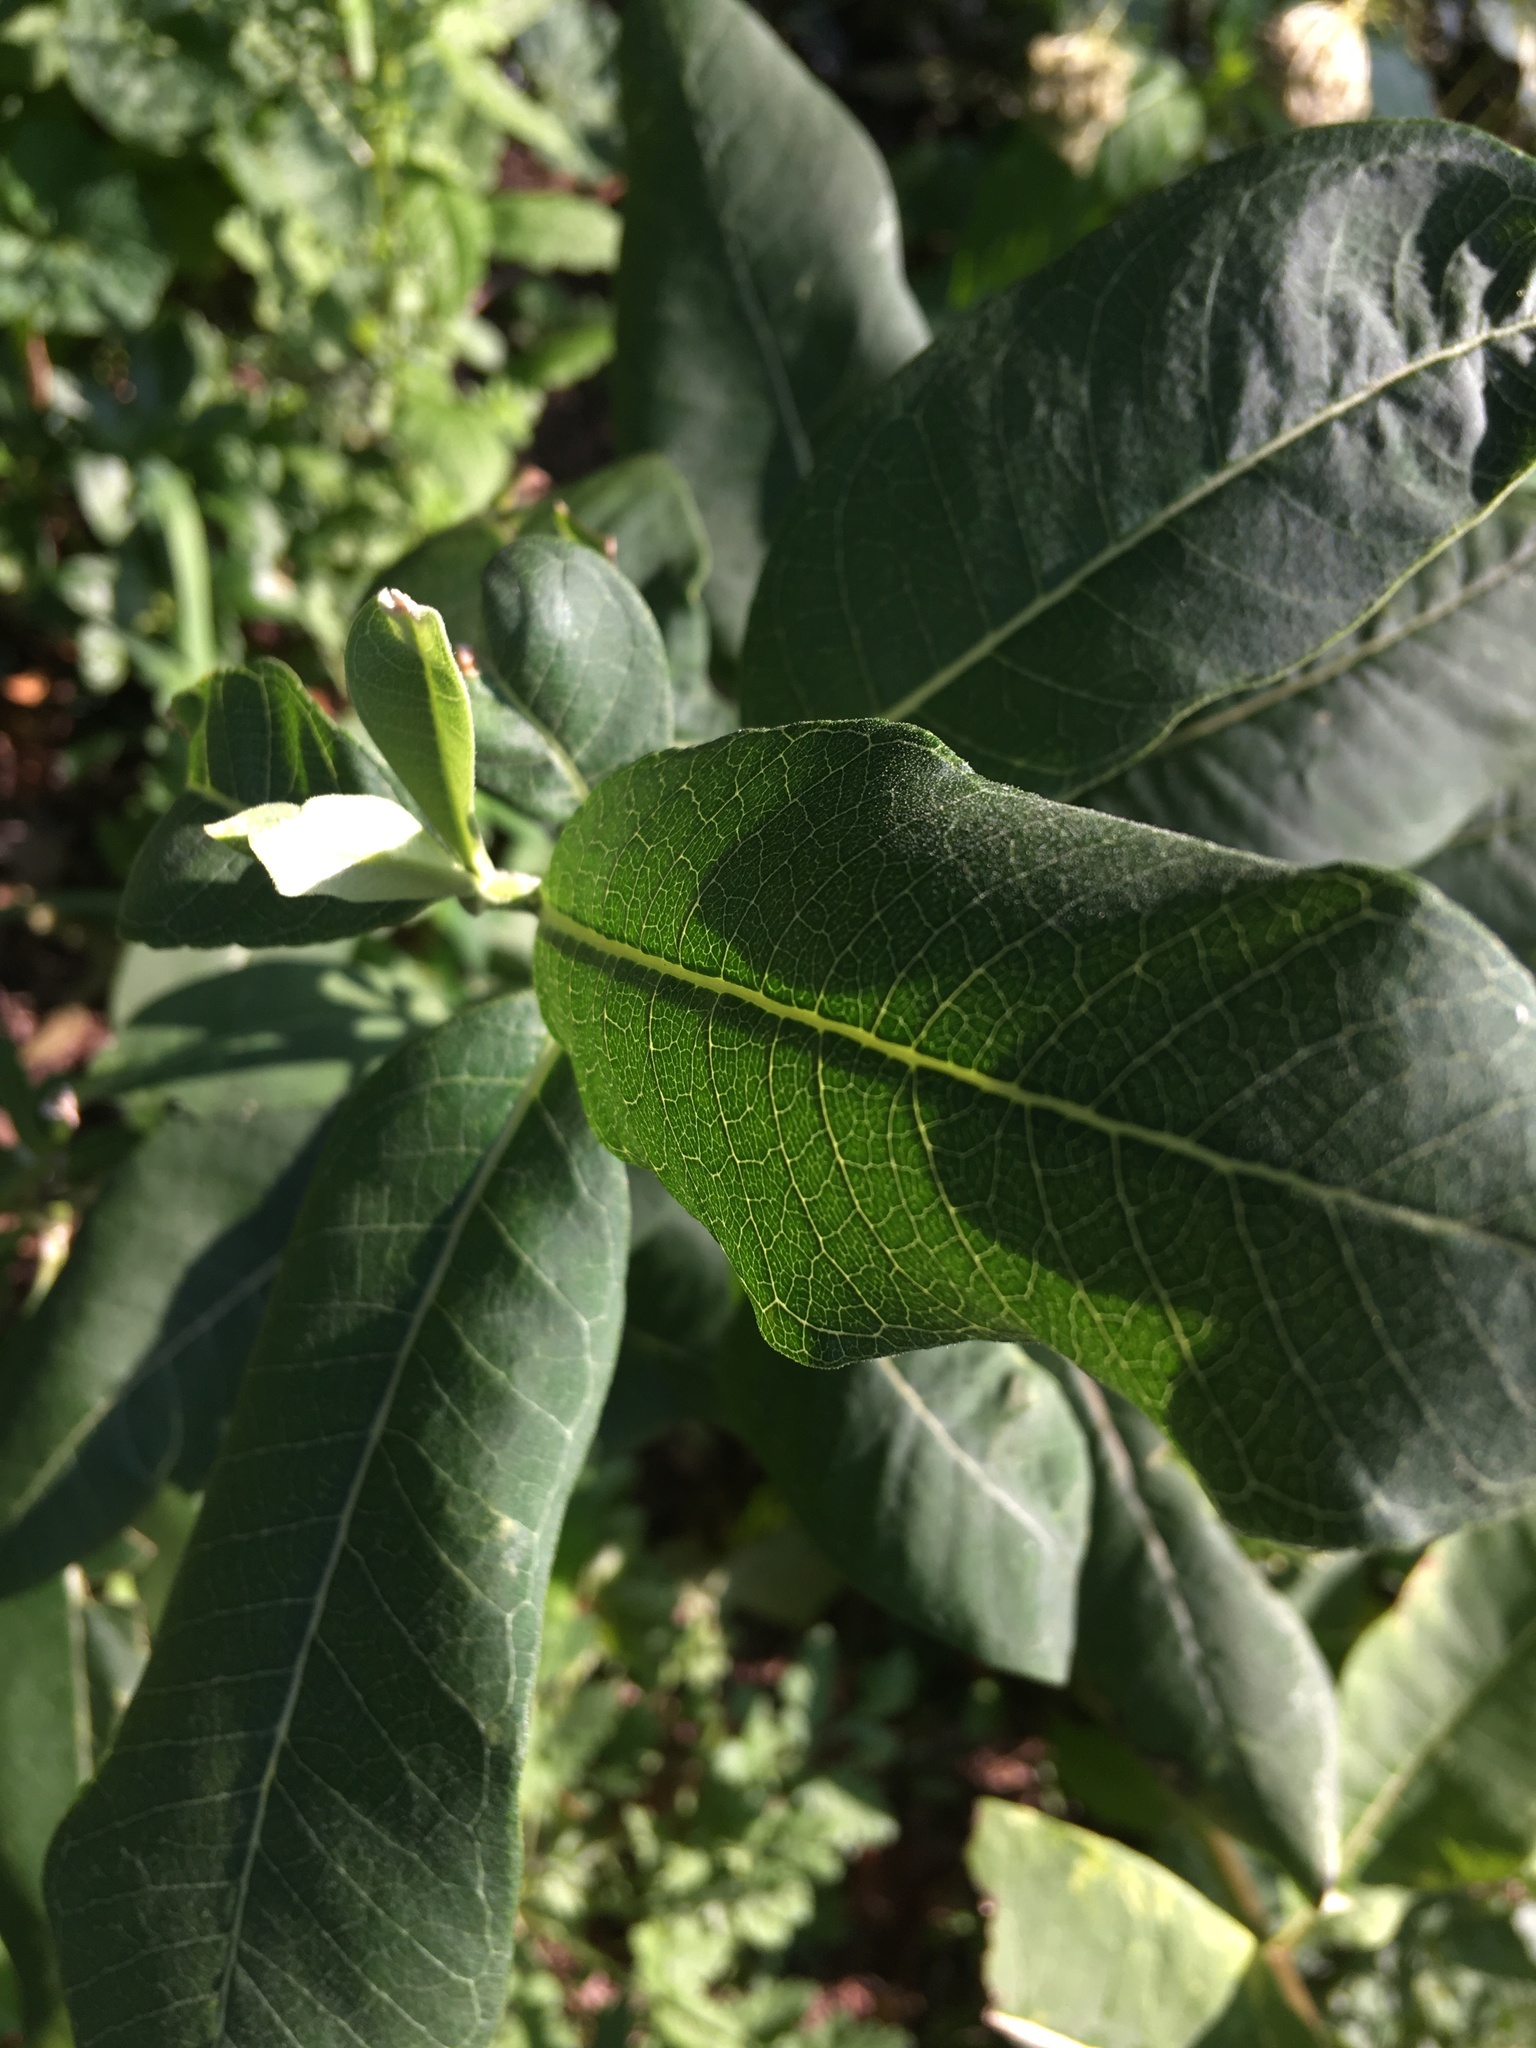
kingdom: Plantae
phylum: Tracheophyta
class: Magnoliopsida
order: Gentianales
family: Apocynaceae
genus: Asclepias
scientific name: Asclepias syriaca
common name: Common milkweed
